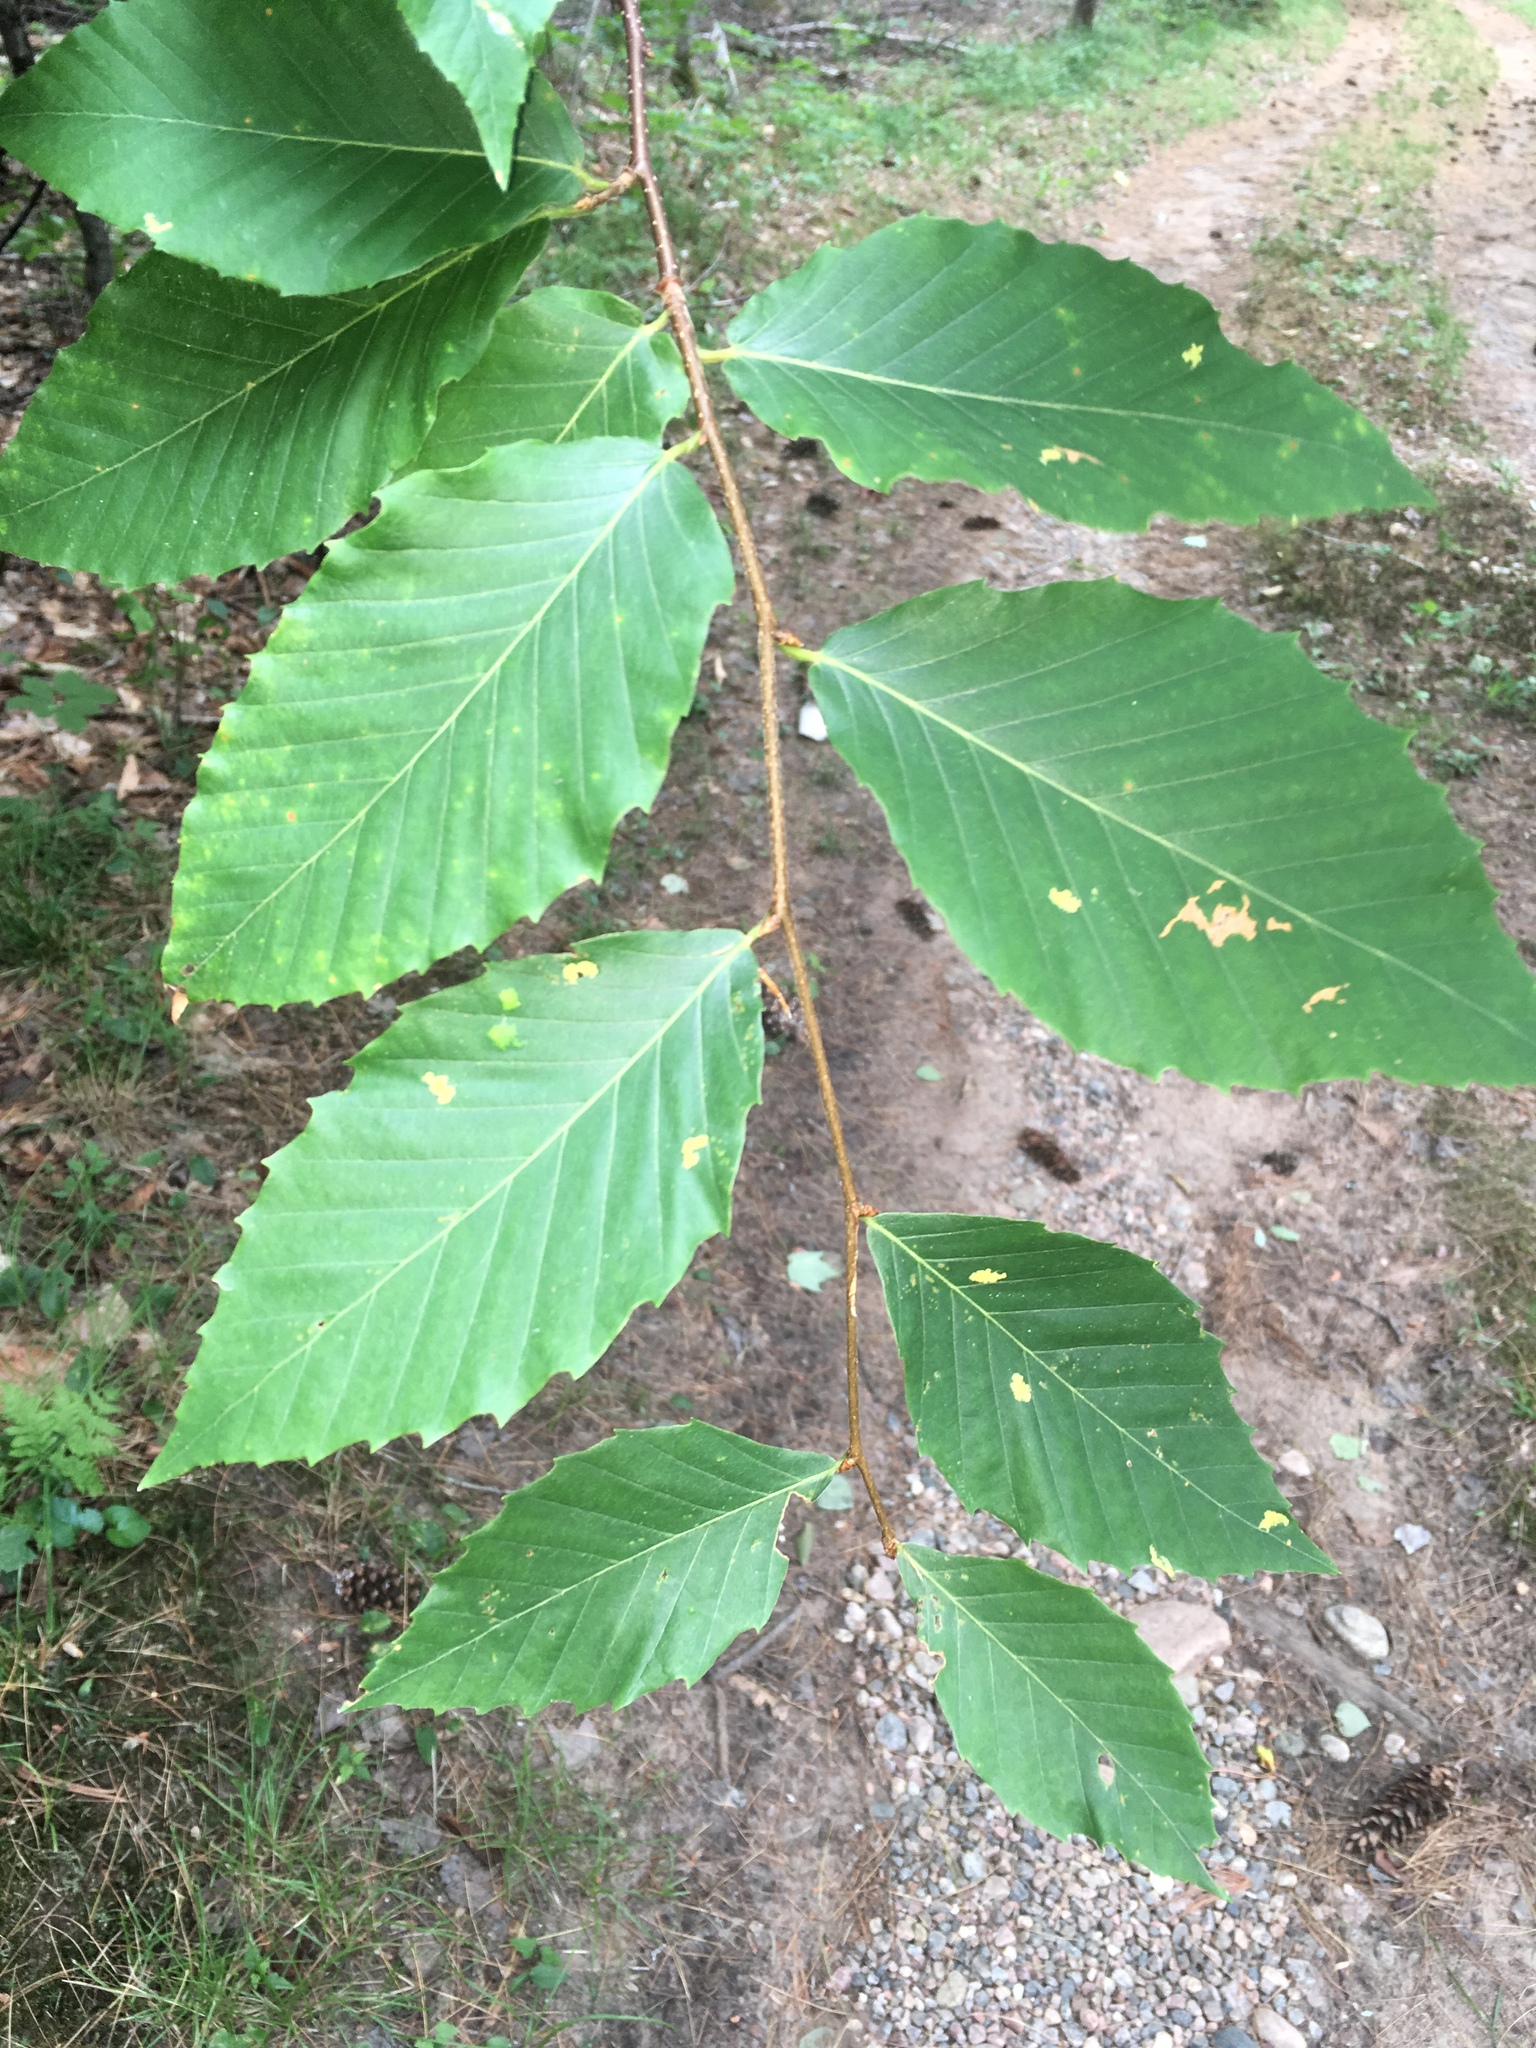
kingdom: Plantae
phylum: Tracheophyta
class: Magnoliopsida
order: Fagales
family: Fagaceae
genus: Fagus
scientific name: Fagus grandifolia
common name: American beech
